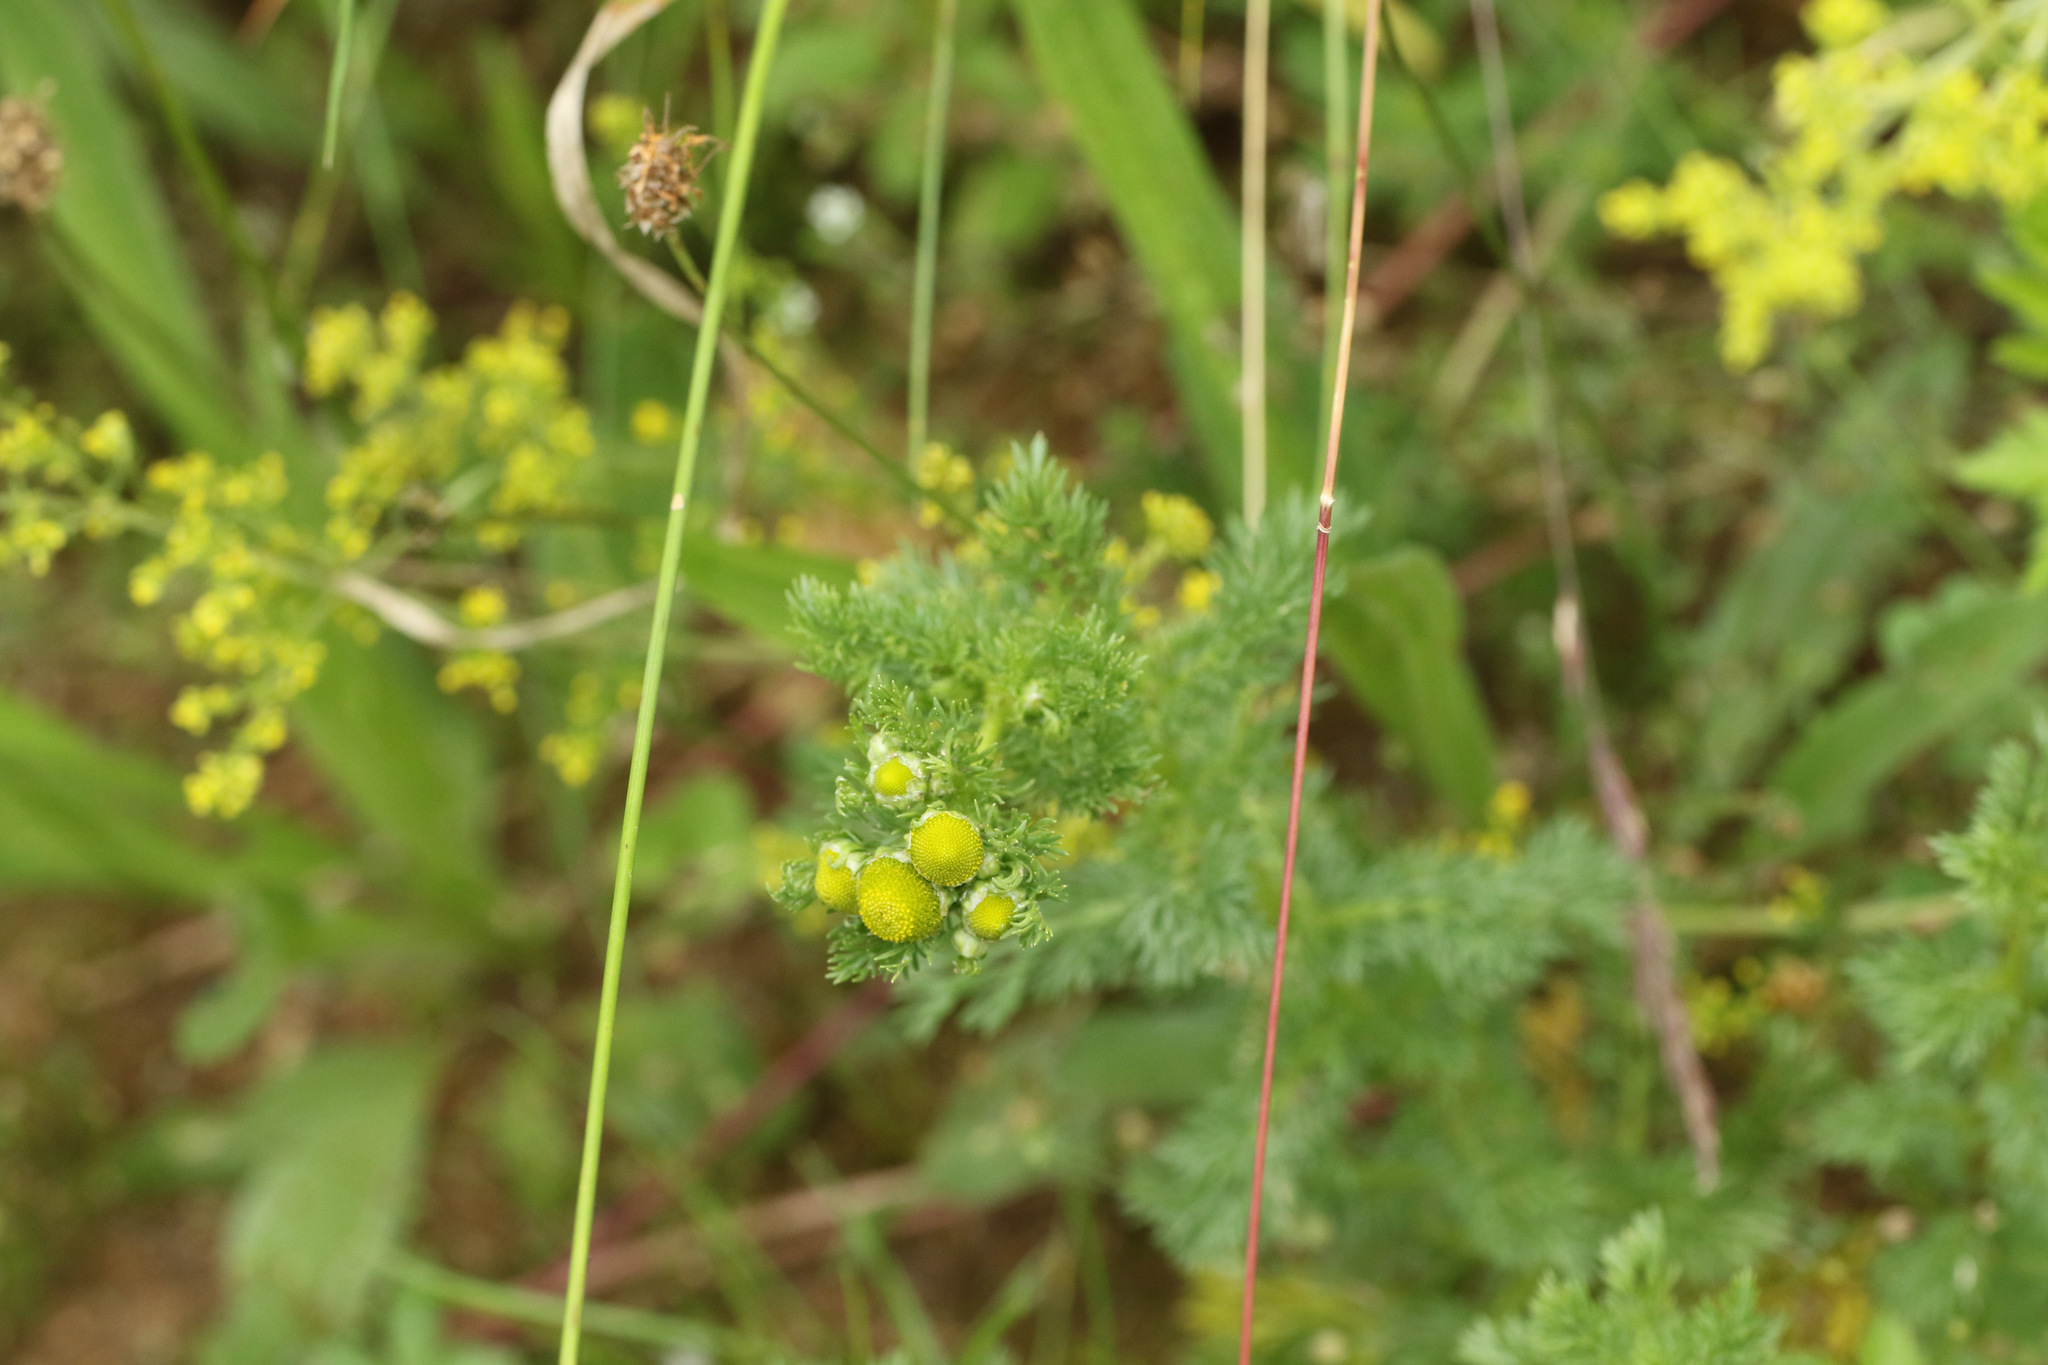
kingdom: Plantae
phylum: Tracheophyta
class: Magnoliopsida
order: Asterales
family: Asteraceae
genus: Matricaria
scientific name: Matricaria discoidea
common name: Disc mayweed
